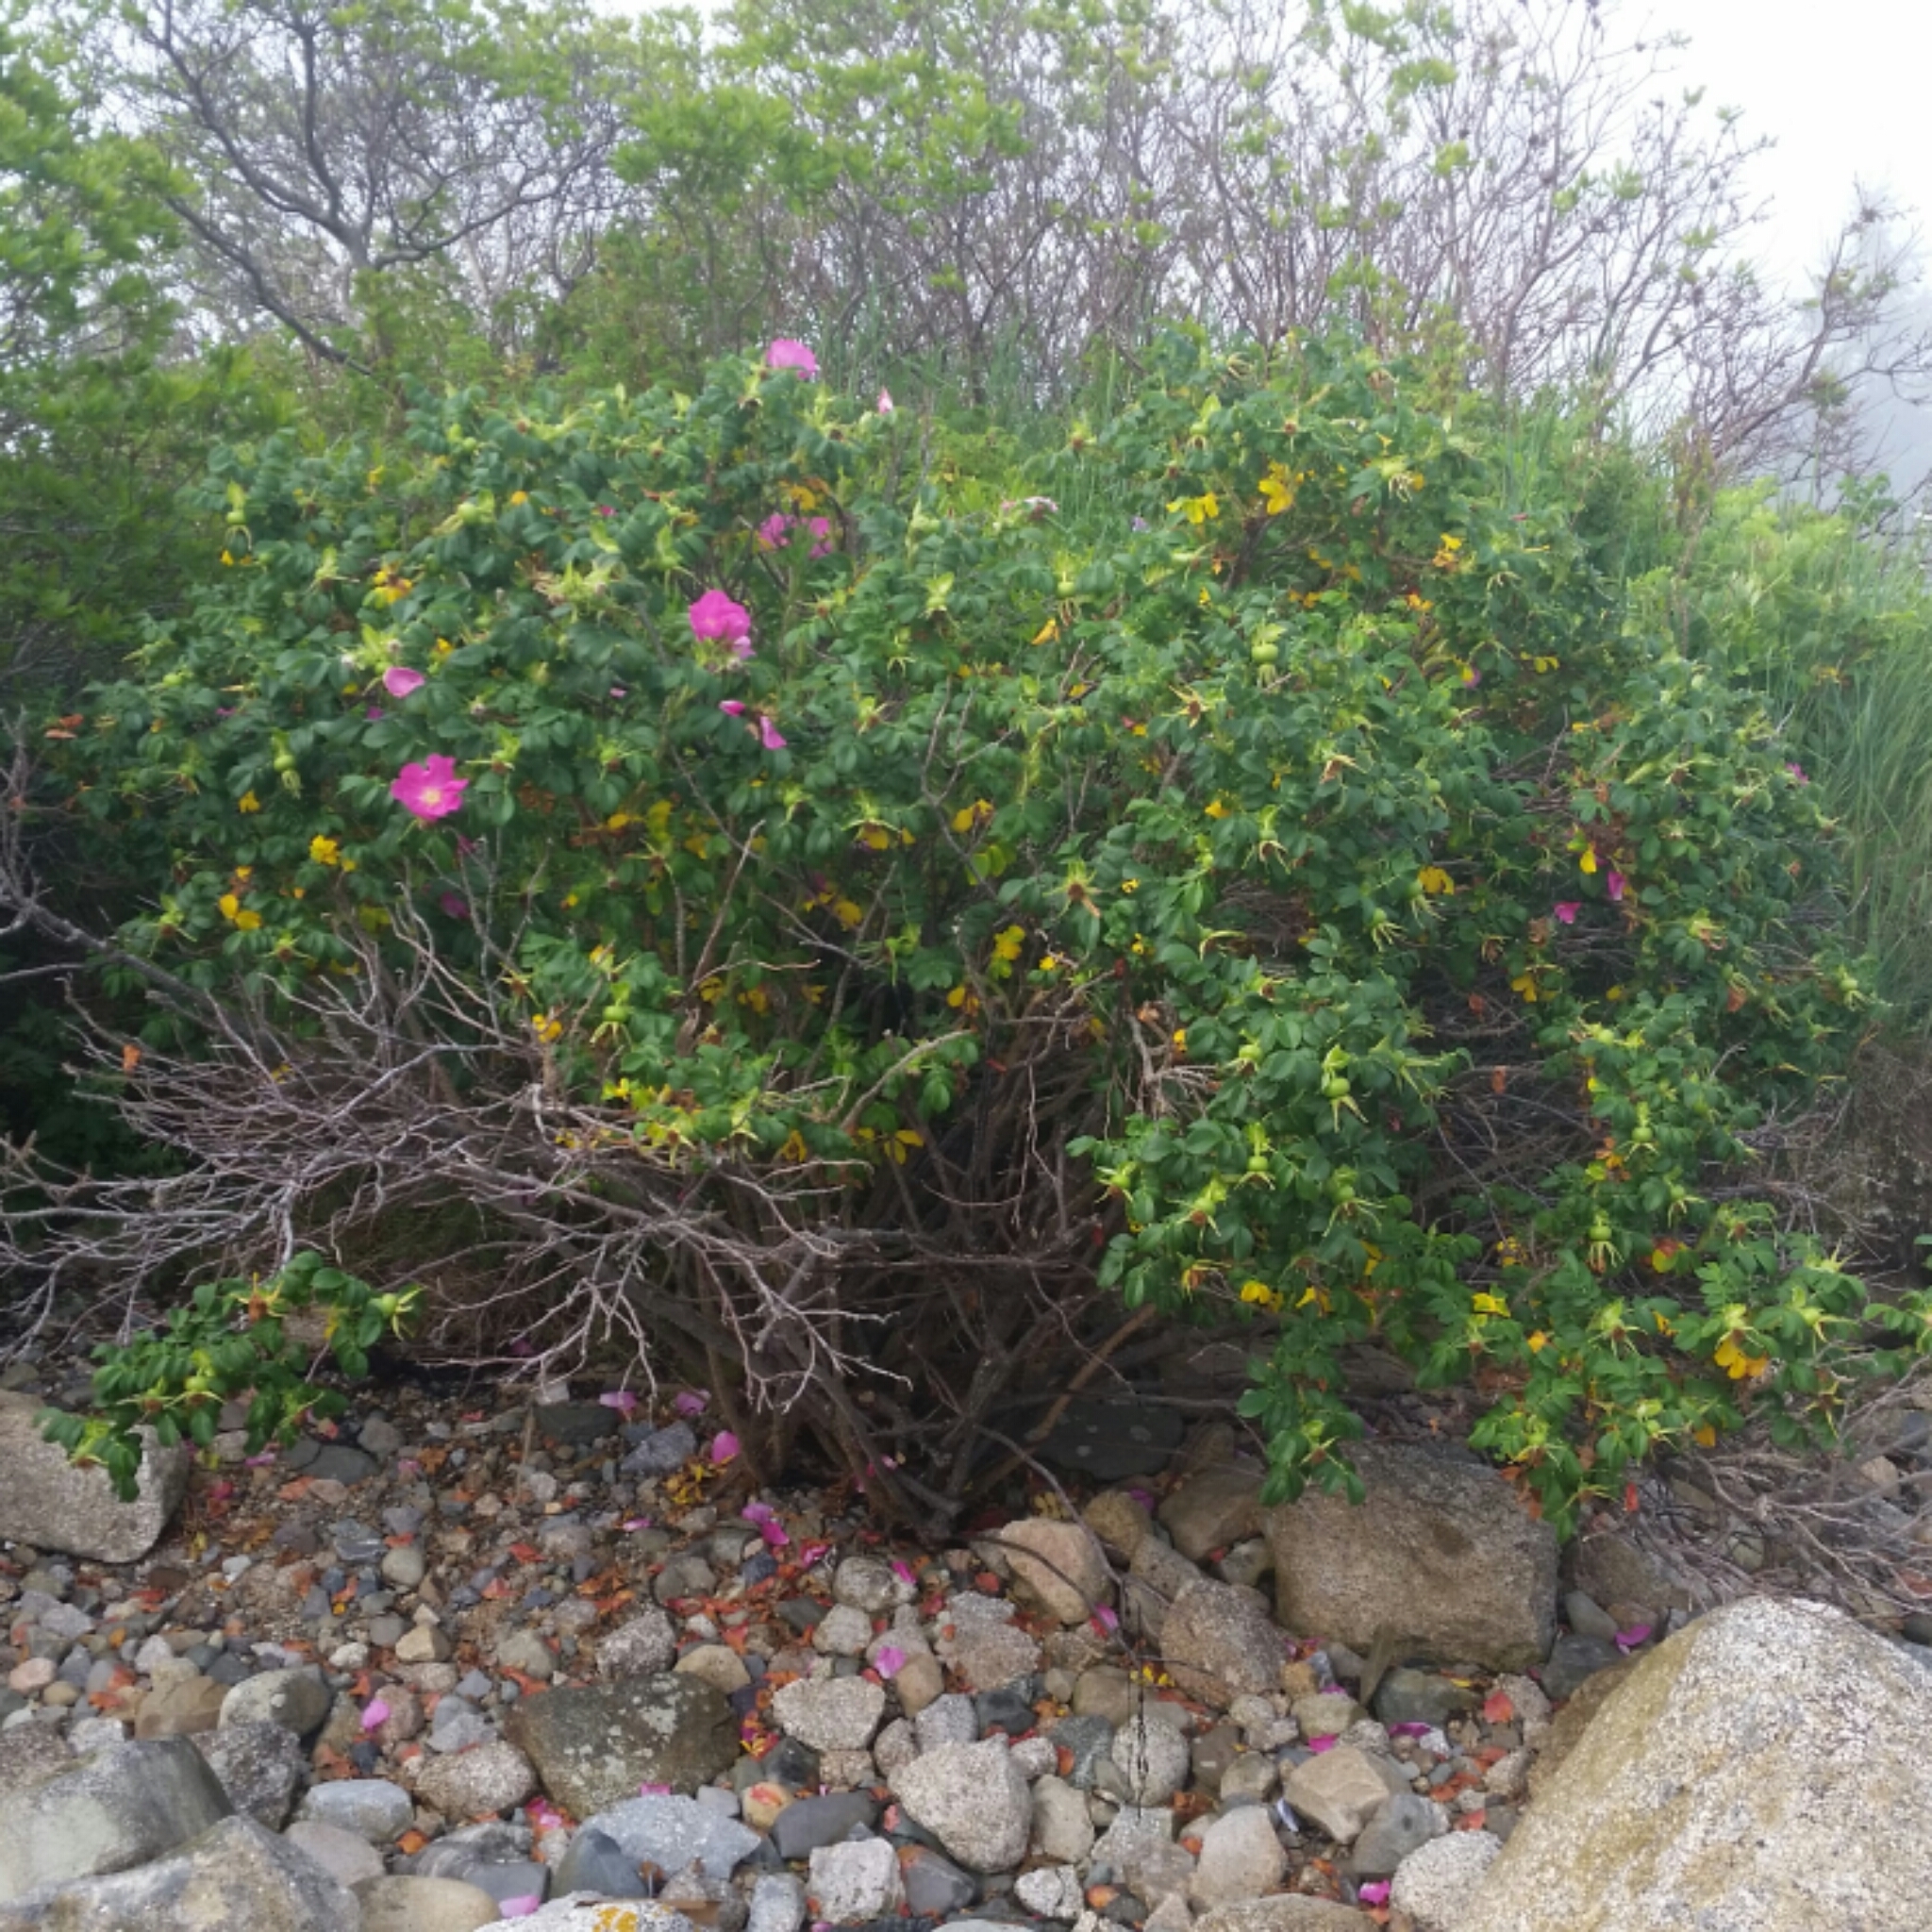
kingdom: Plantae
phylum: Tracheophyta
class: Magnoliopsida
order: Rosales
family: Rosaceae
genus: Rosa
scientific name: Rosa rugosa
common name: Japanese rose
